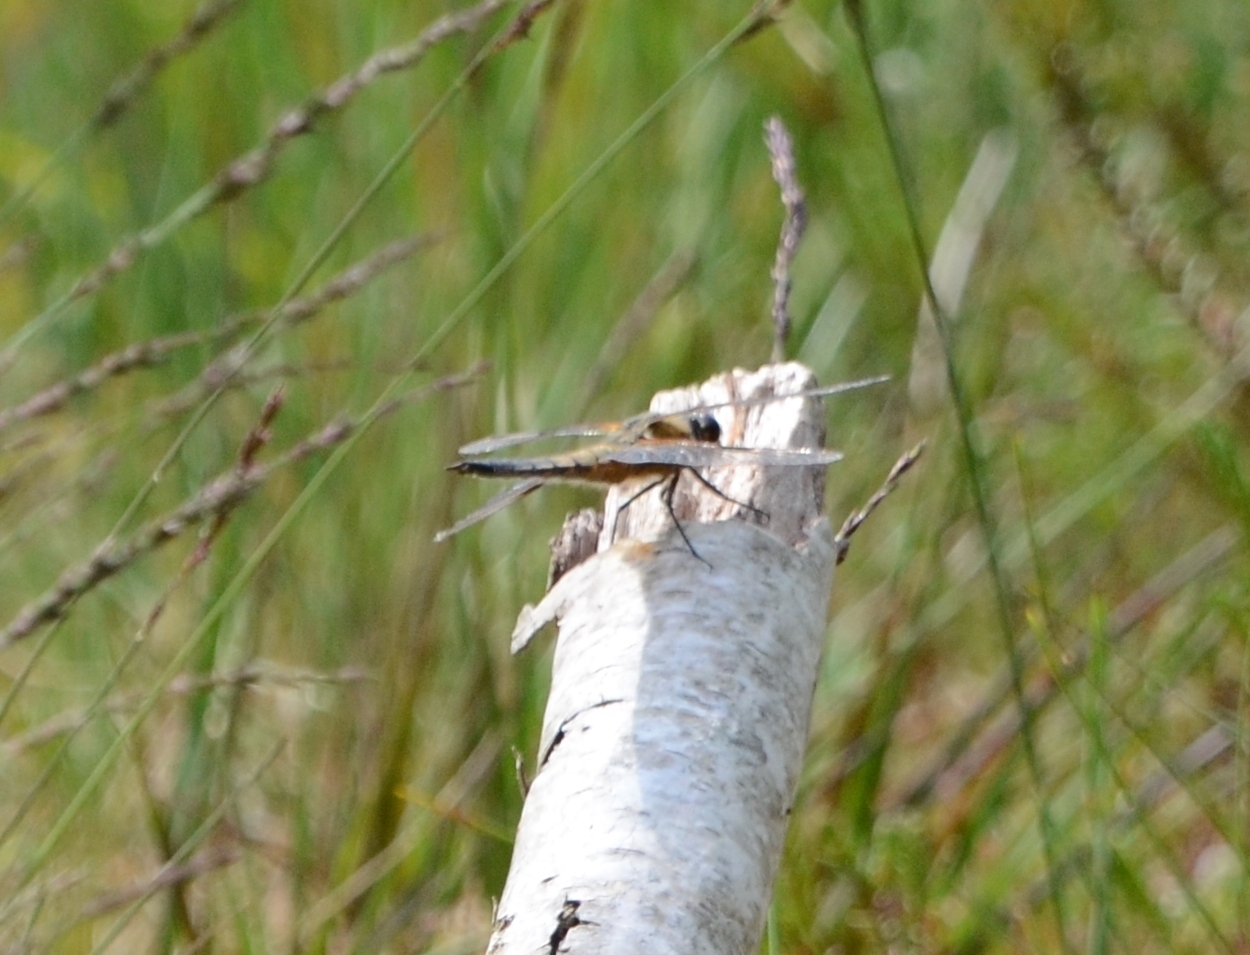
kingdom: Animalia
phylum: Arthropoda
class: Insecta
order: Odonata
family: Libellulidae
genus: Libellula
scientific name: Libellula quadrimaculata
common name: Four-spotted chaser
